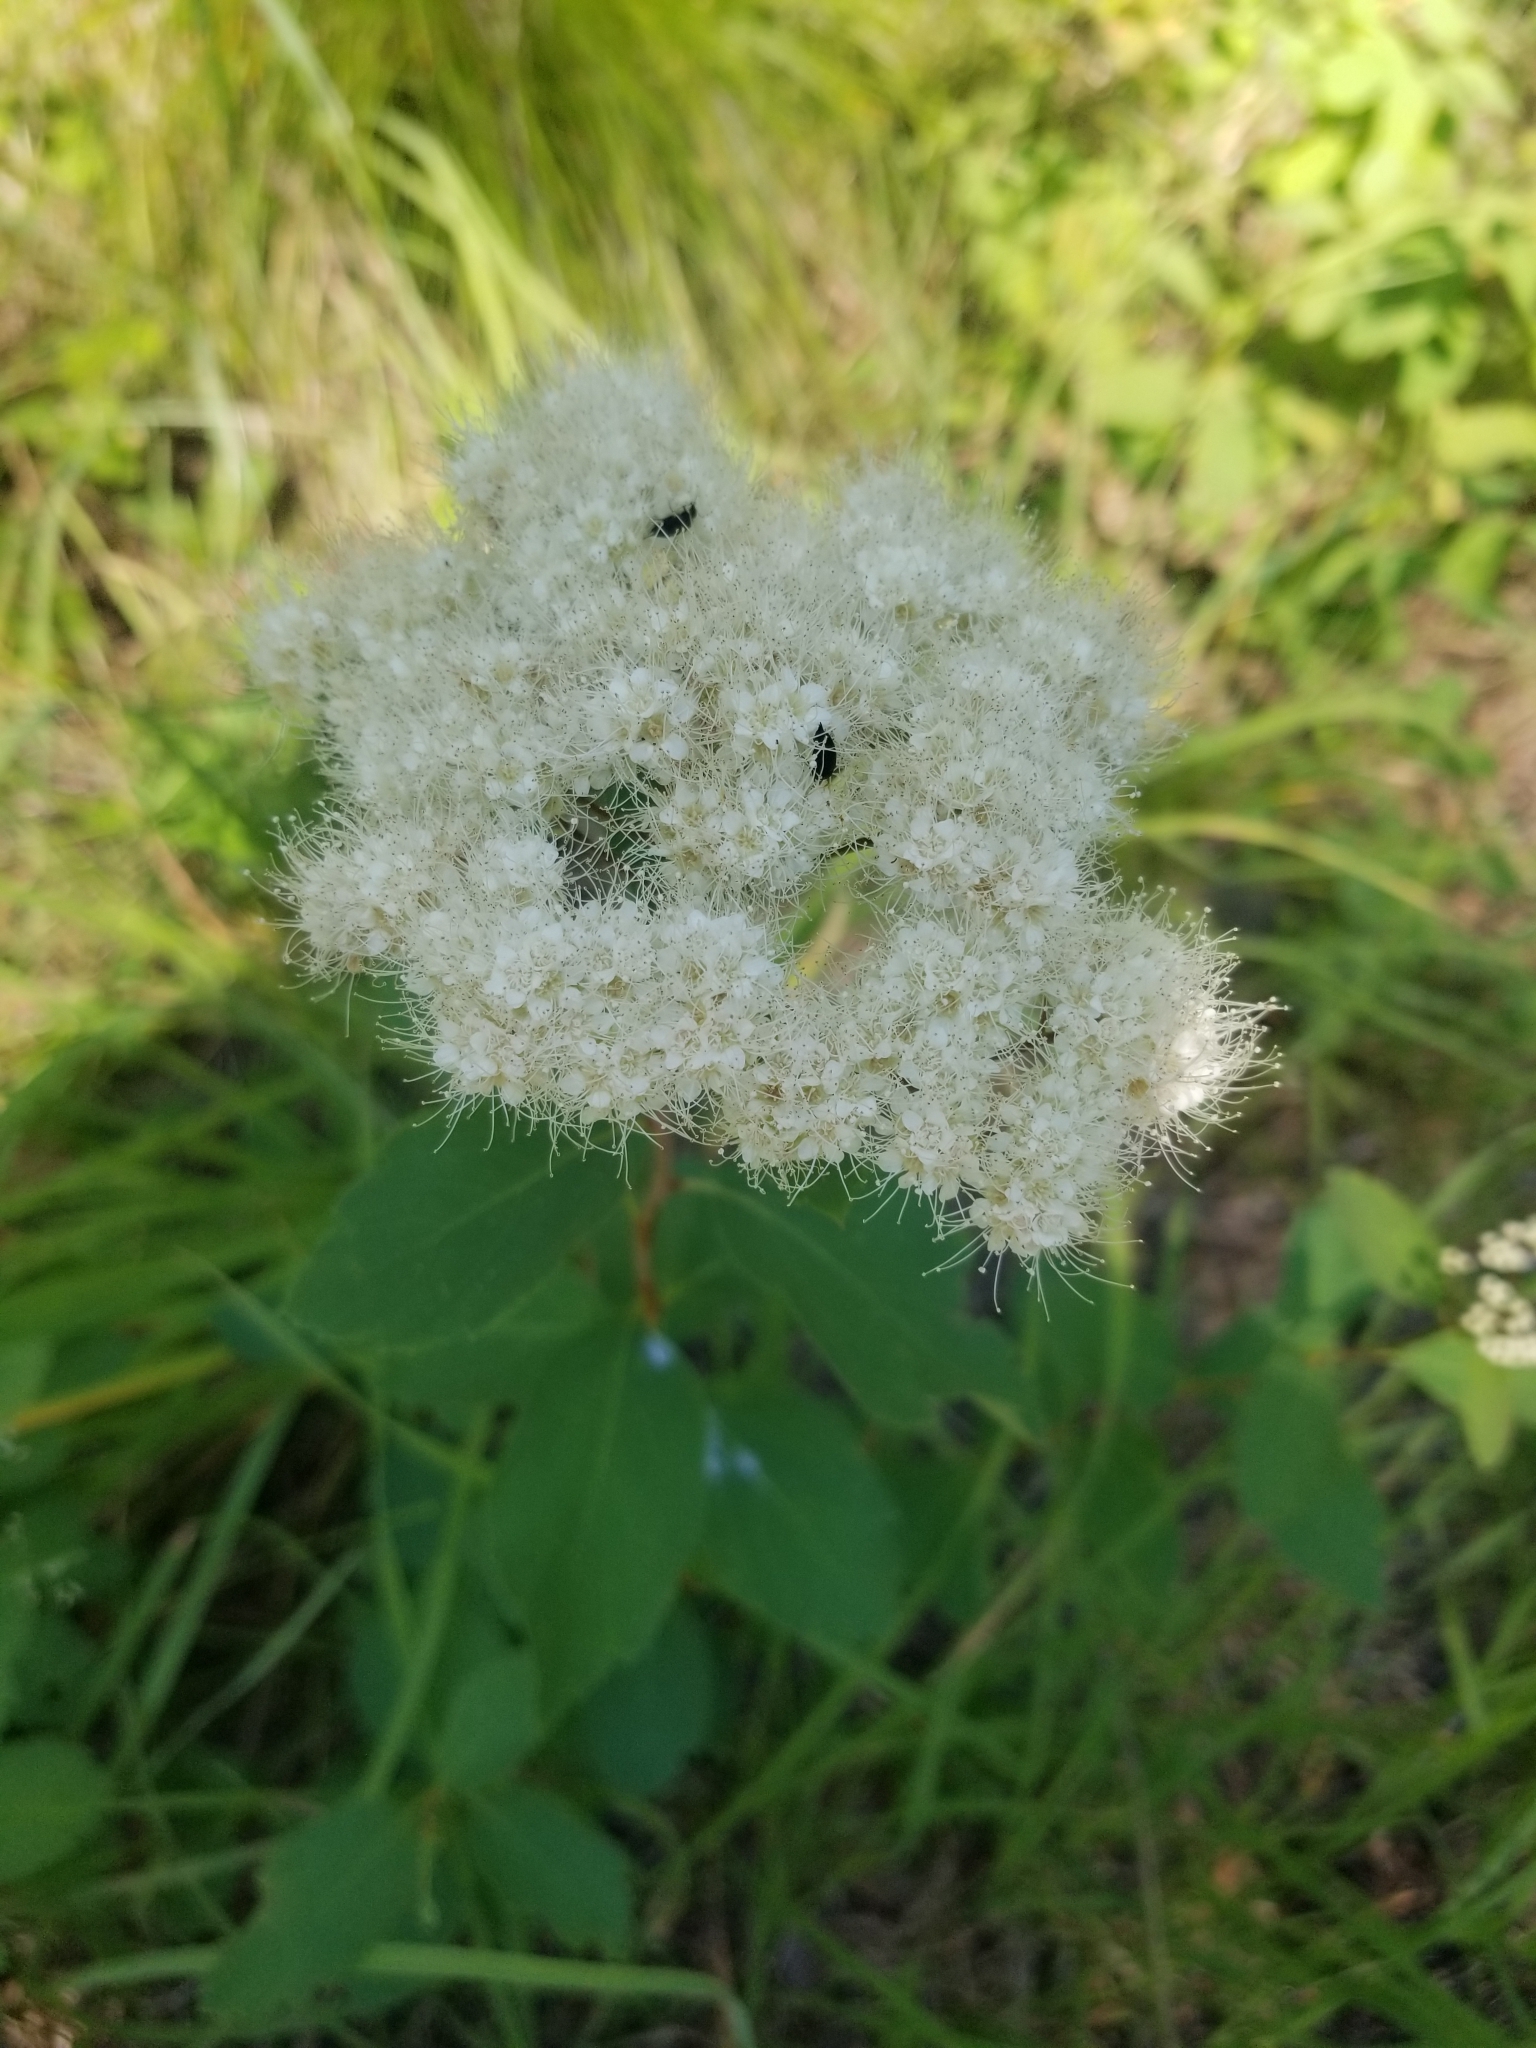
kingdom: Plantae
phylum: Tracheophyta
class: Magnoliopsida
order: Rosales
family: Rosaceae
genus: Spiraea
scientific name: Spiraea lucida
